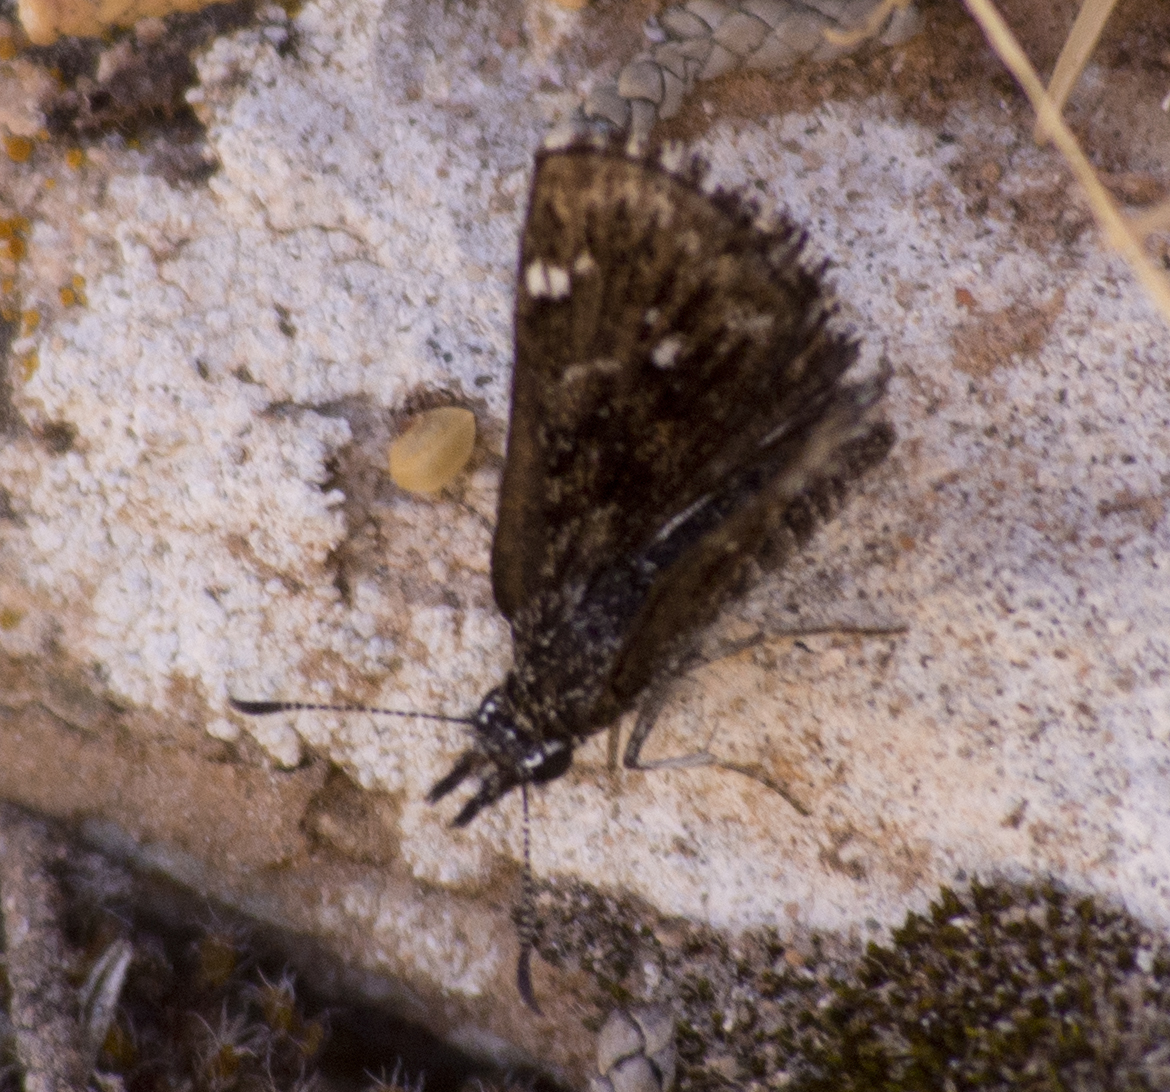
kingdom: Animalia
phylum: Arthropoda
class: Insecta
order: Lepidoptera
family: Hesperiidae
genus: Hesperopsis
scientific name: Hesperopsis alpheus
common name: Saltbush sootywing
